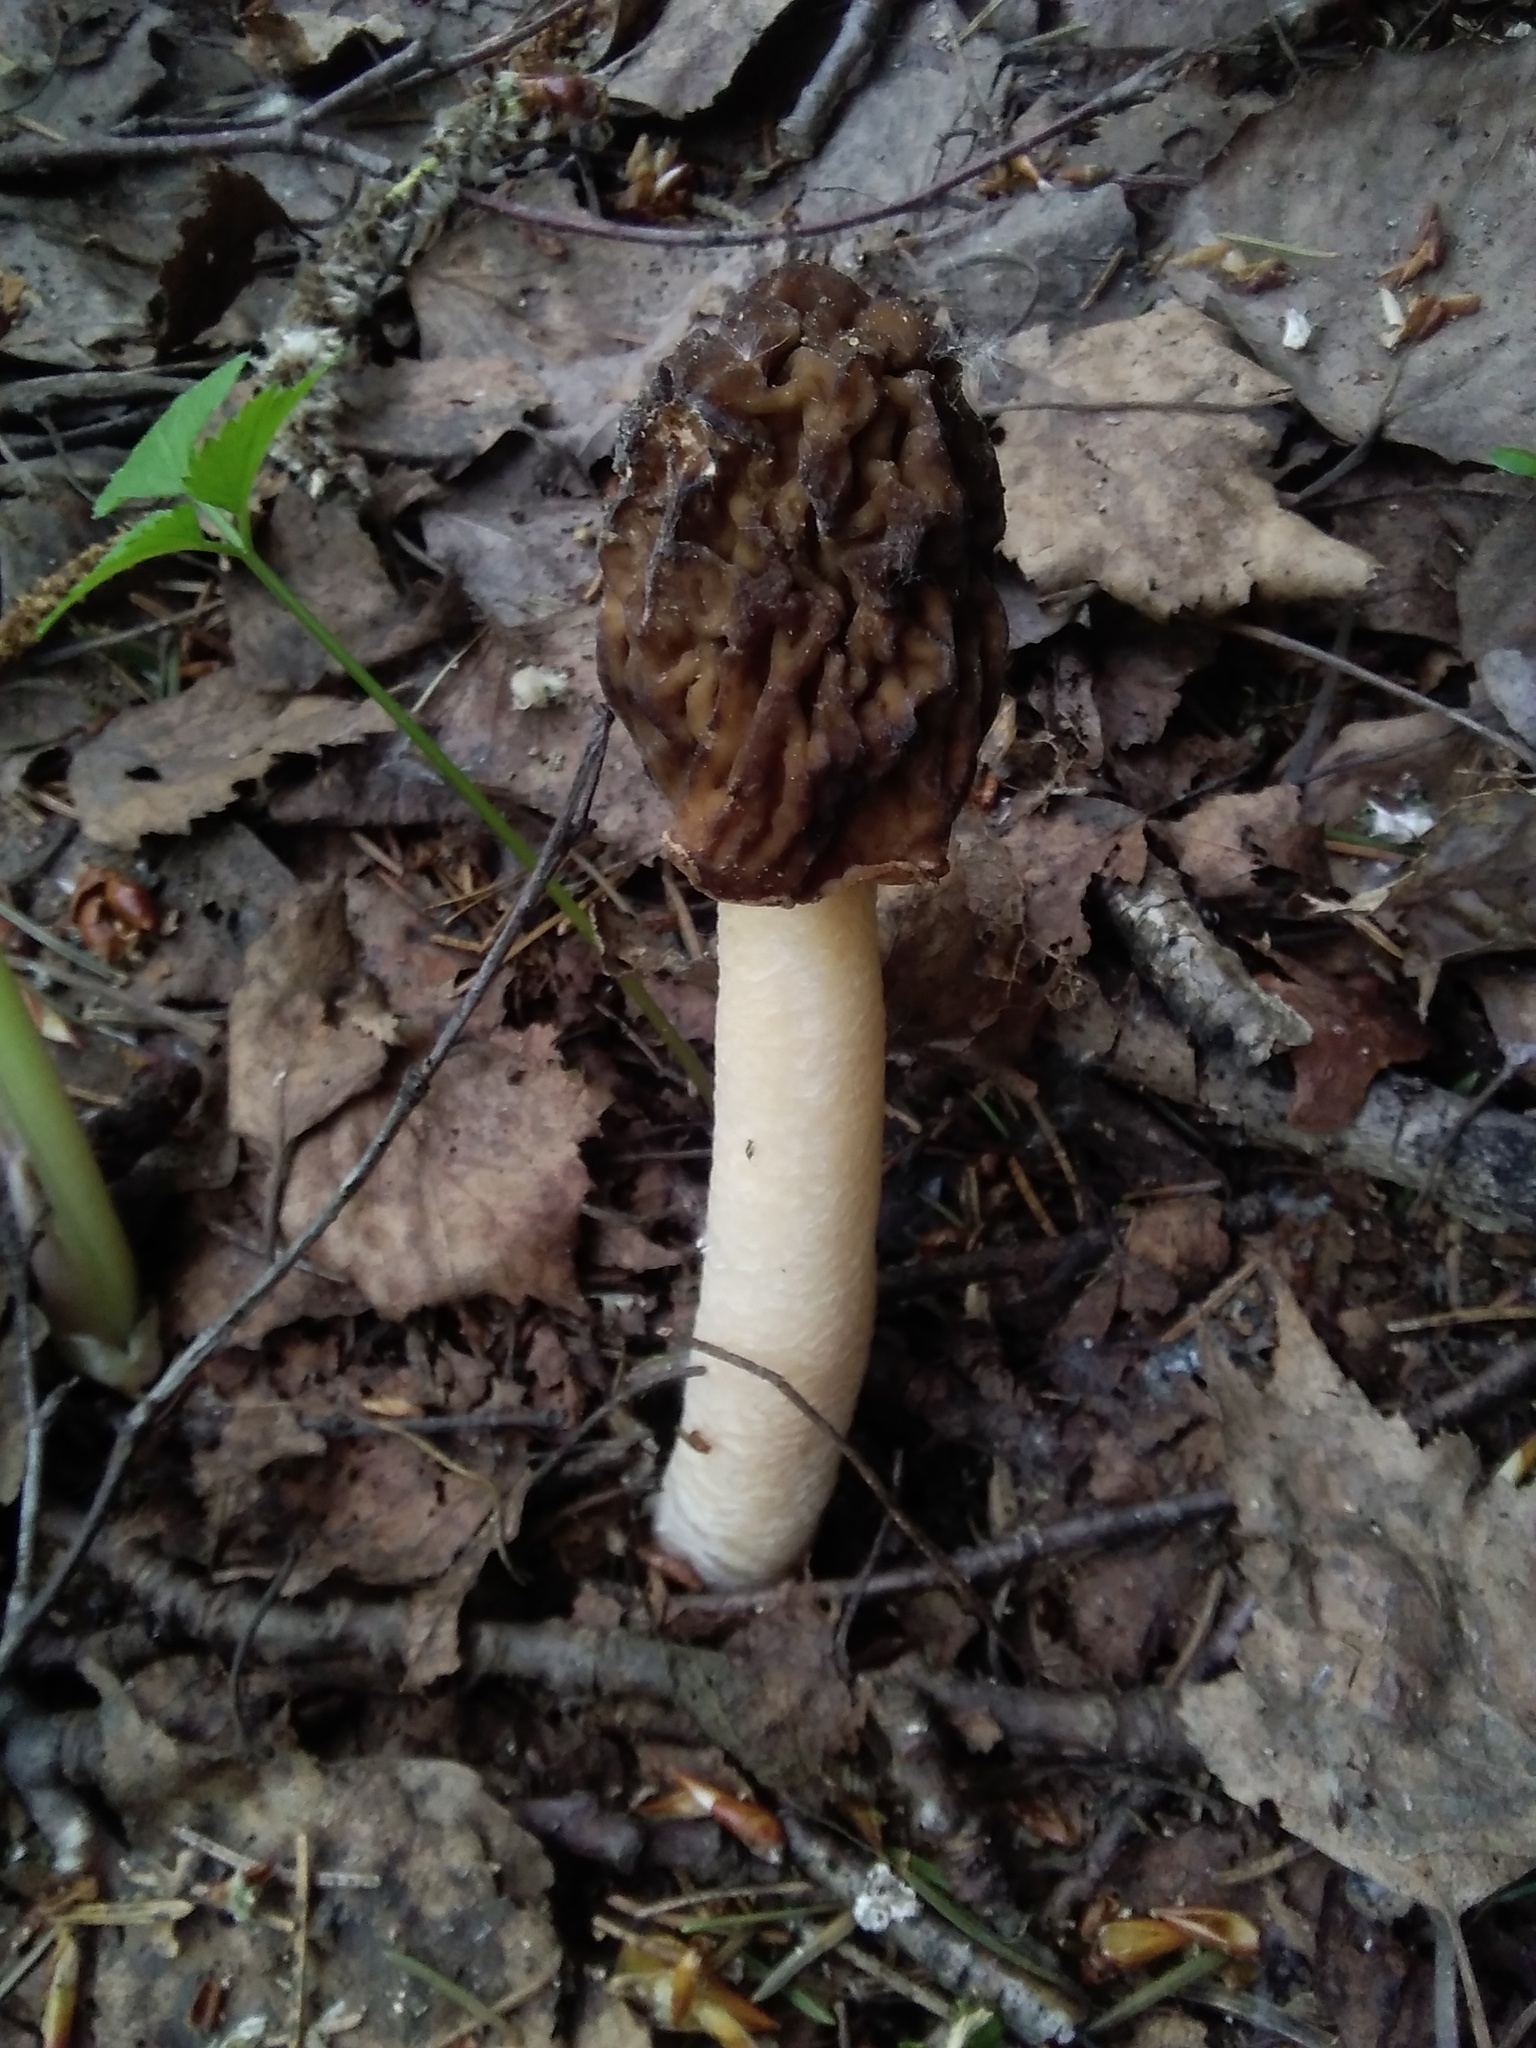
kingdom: Fungi
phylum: Ascomycota
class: Pezizomycetes
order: Pezizales
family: Morchellaceae
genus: Verpa
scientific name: Verpa bohemica
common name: Wrinkled thimble morel
